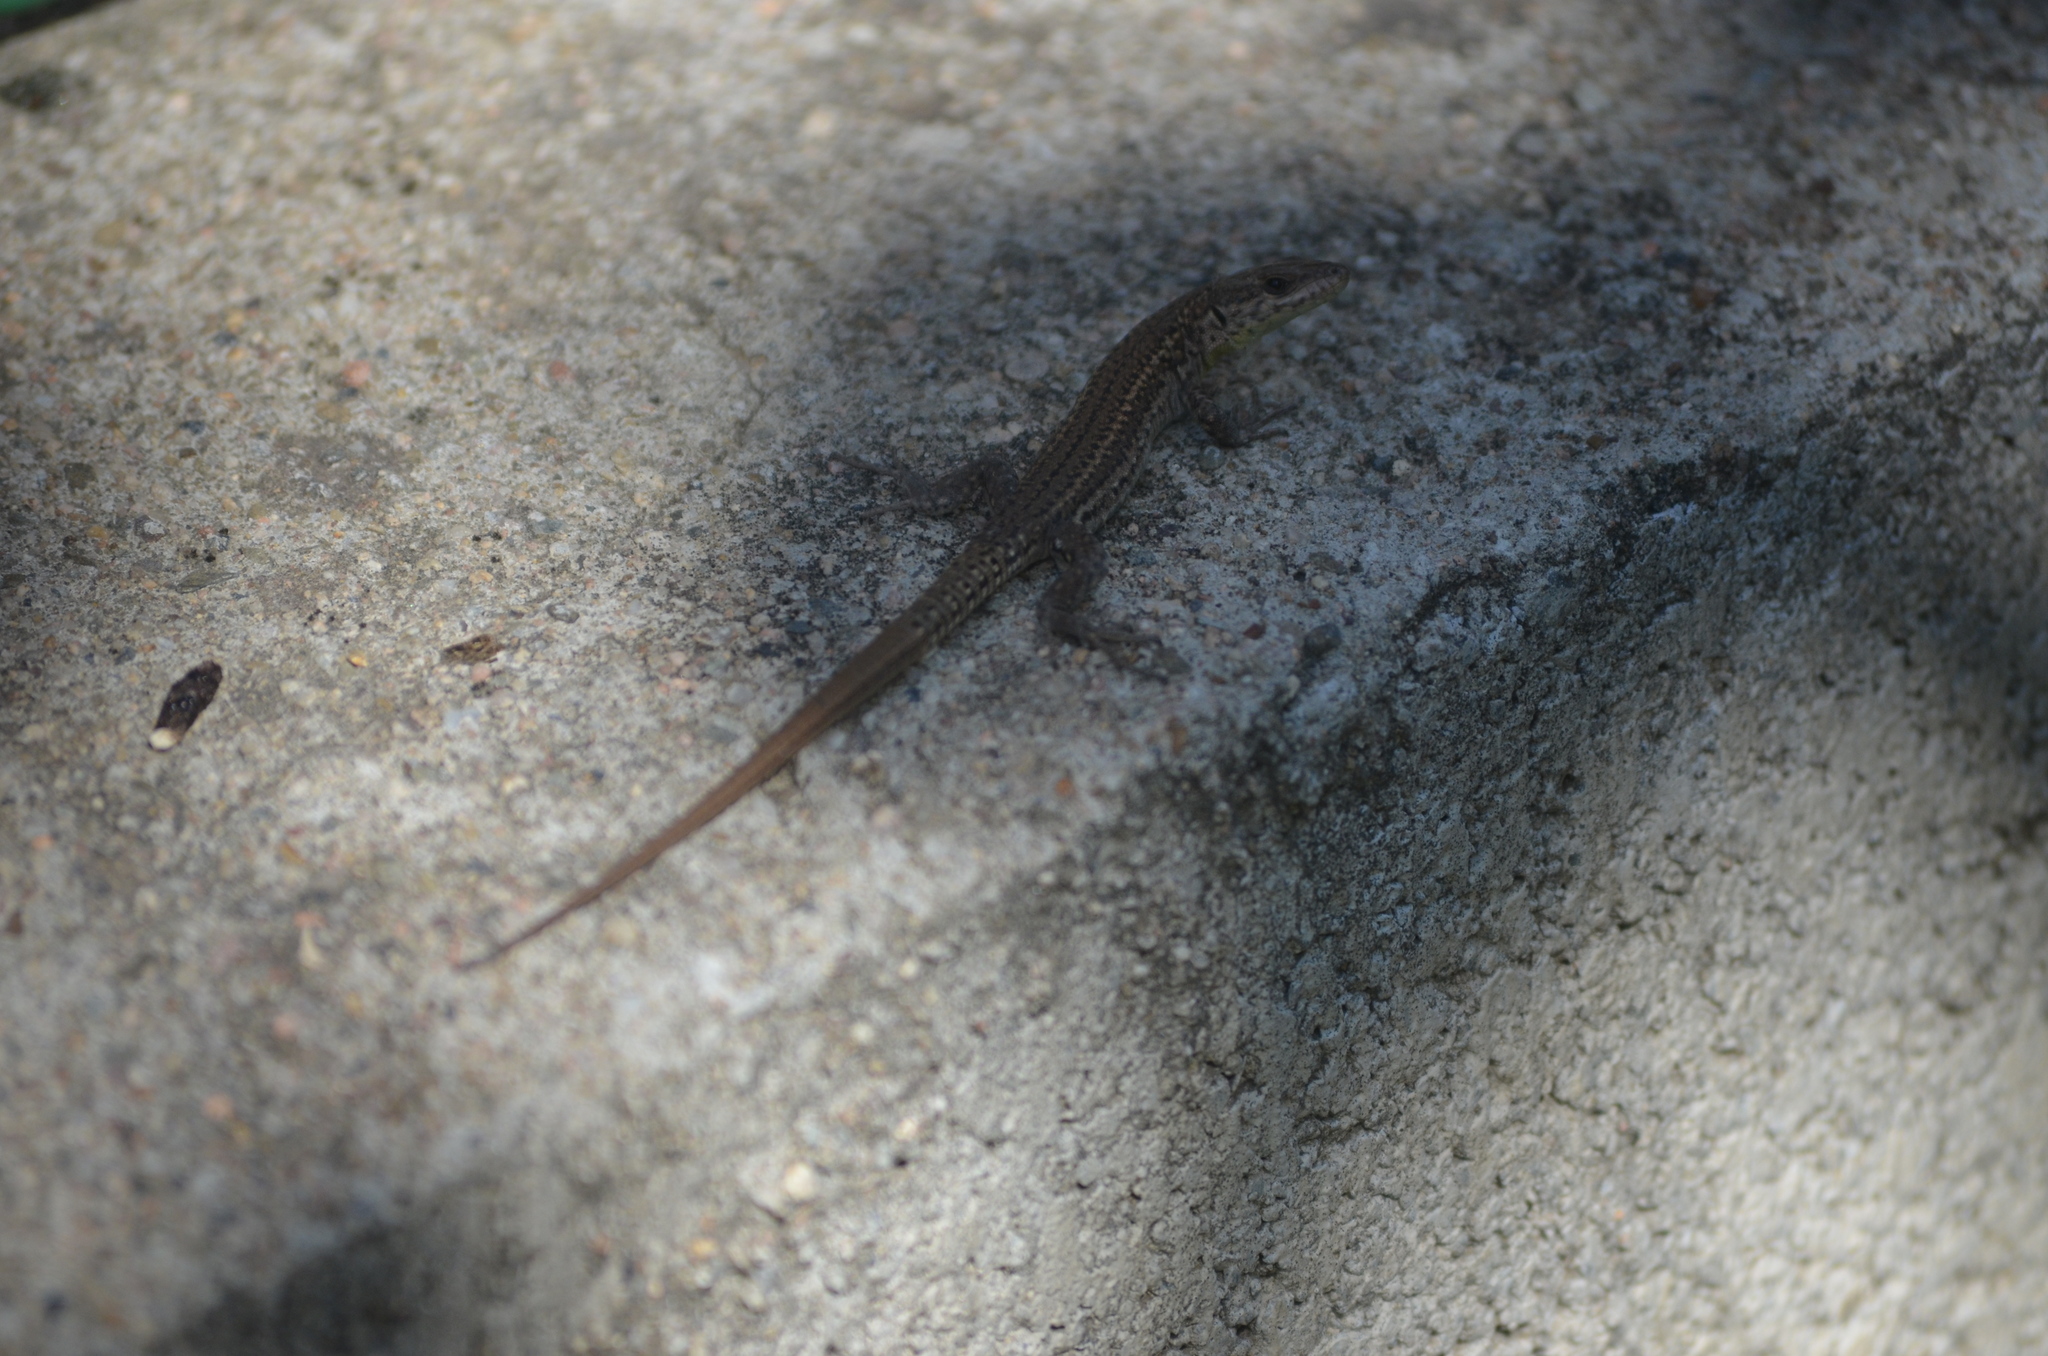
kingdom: Animalia
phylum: Chordata
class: Squamata
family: Lacertidae
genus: Podarcis
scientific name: Podarcis liolepis
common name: Catalonian wall lizard
